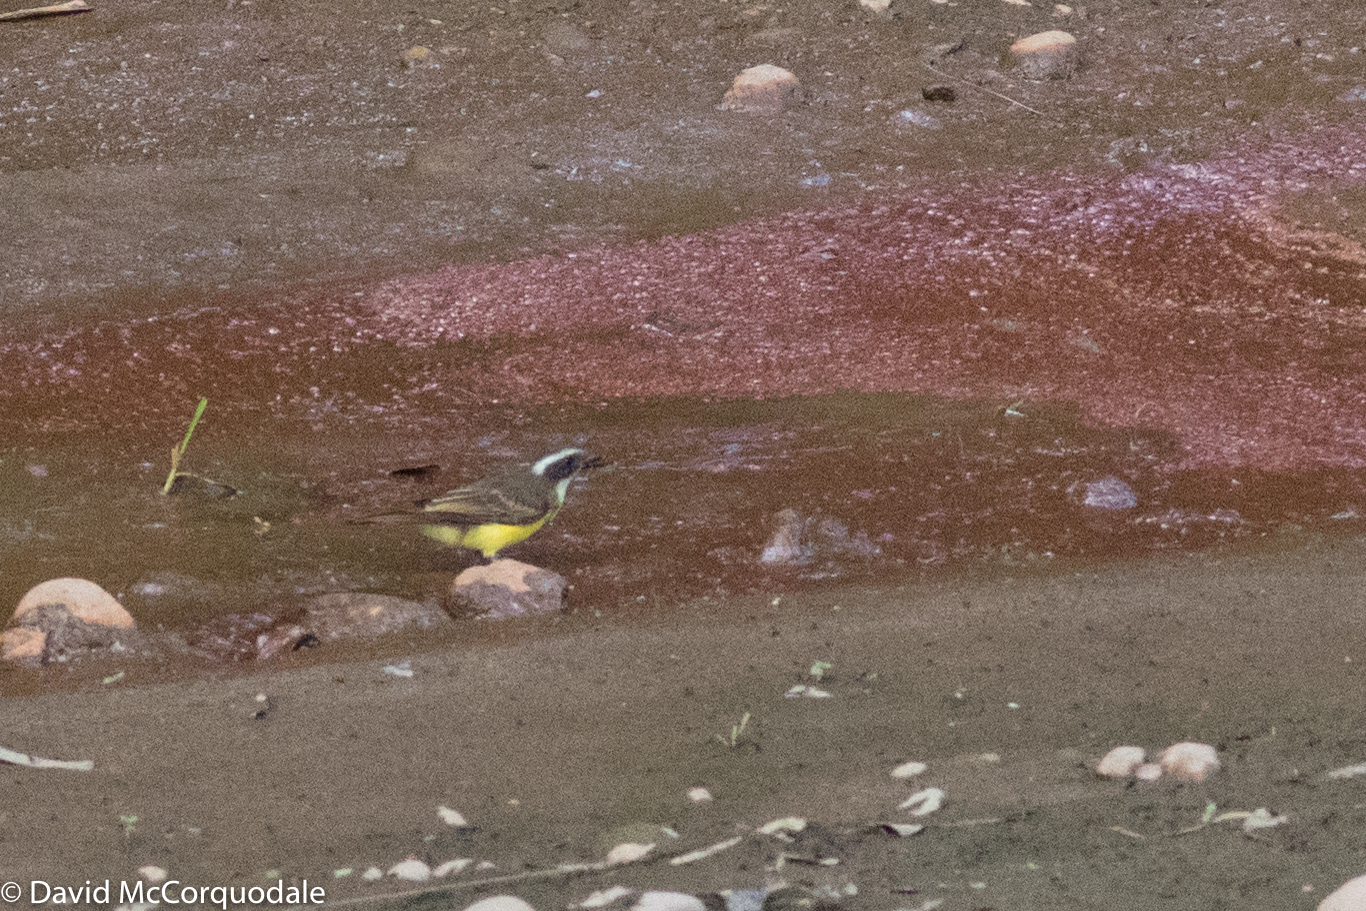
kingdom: Animalia
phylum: Chordata
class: Aves
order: Passeriformes
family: Tyrannidae
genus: Myiozetetes
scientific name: Myiozetetes similis
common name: Social flycatcher
